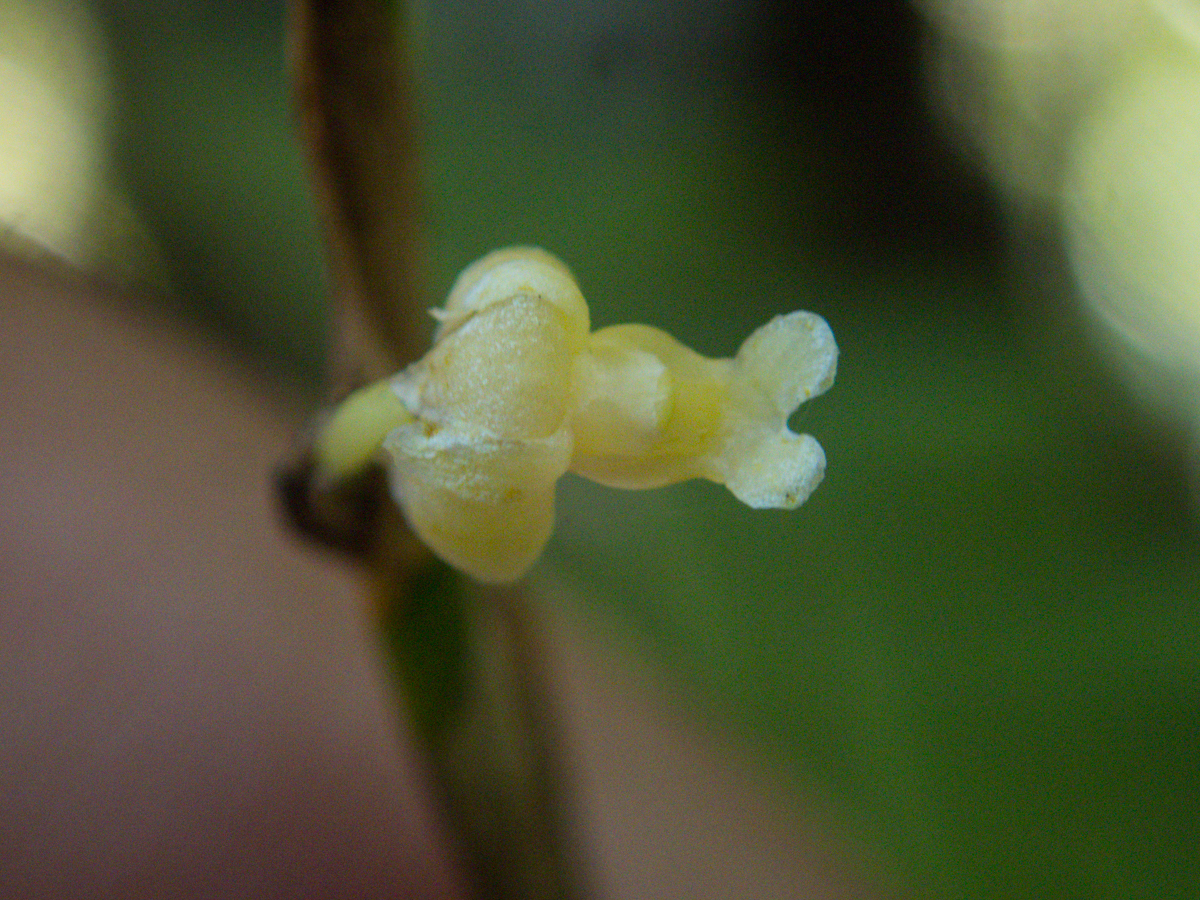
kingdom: Plantae
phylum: Tracheophyta
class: Liliopsida
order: Asparagales
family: Orchidaceae
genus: Dendrobium
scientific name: Dendrobium aloifolium
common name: Aloe-like dendrobium
